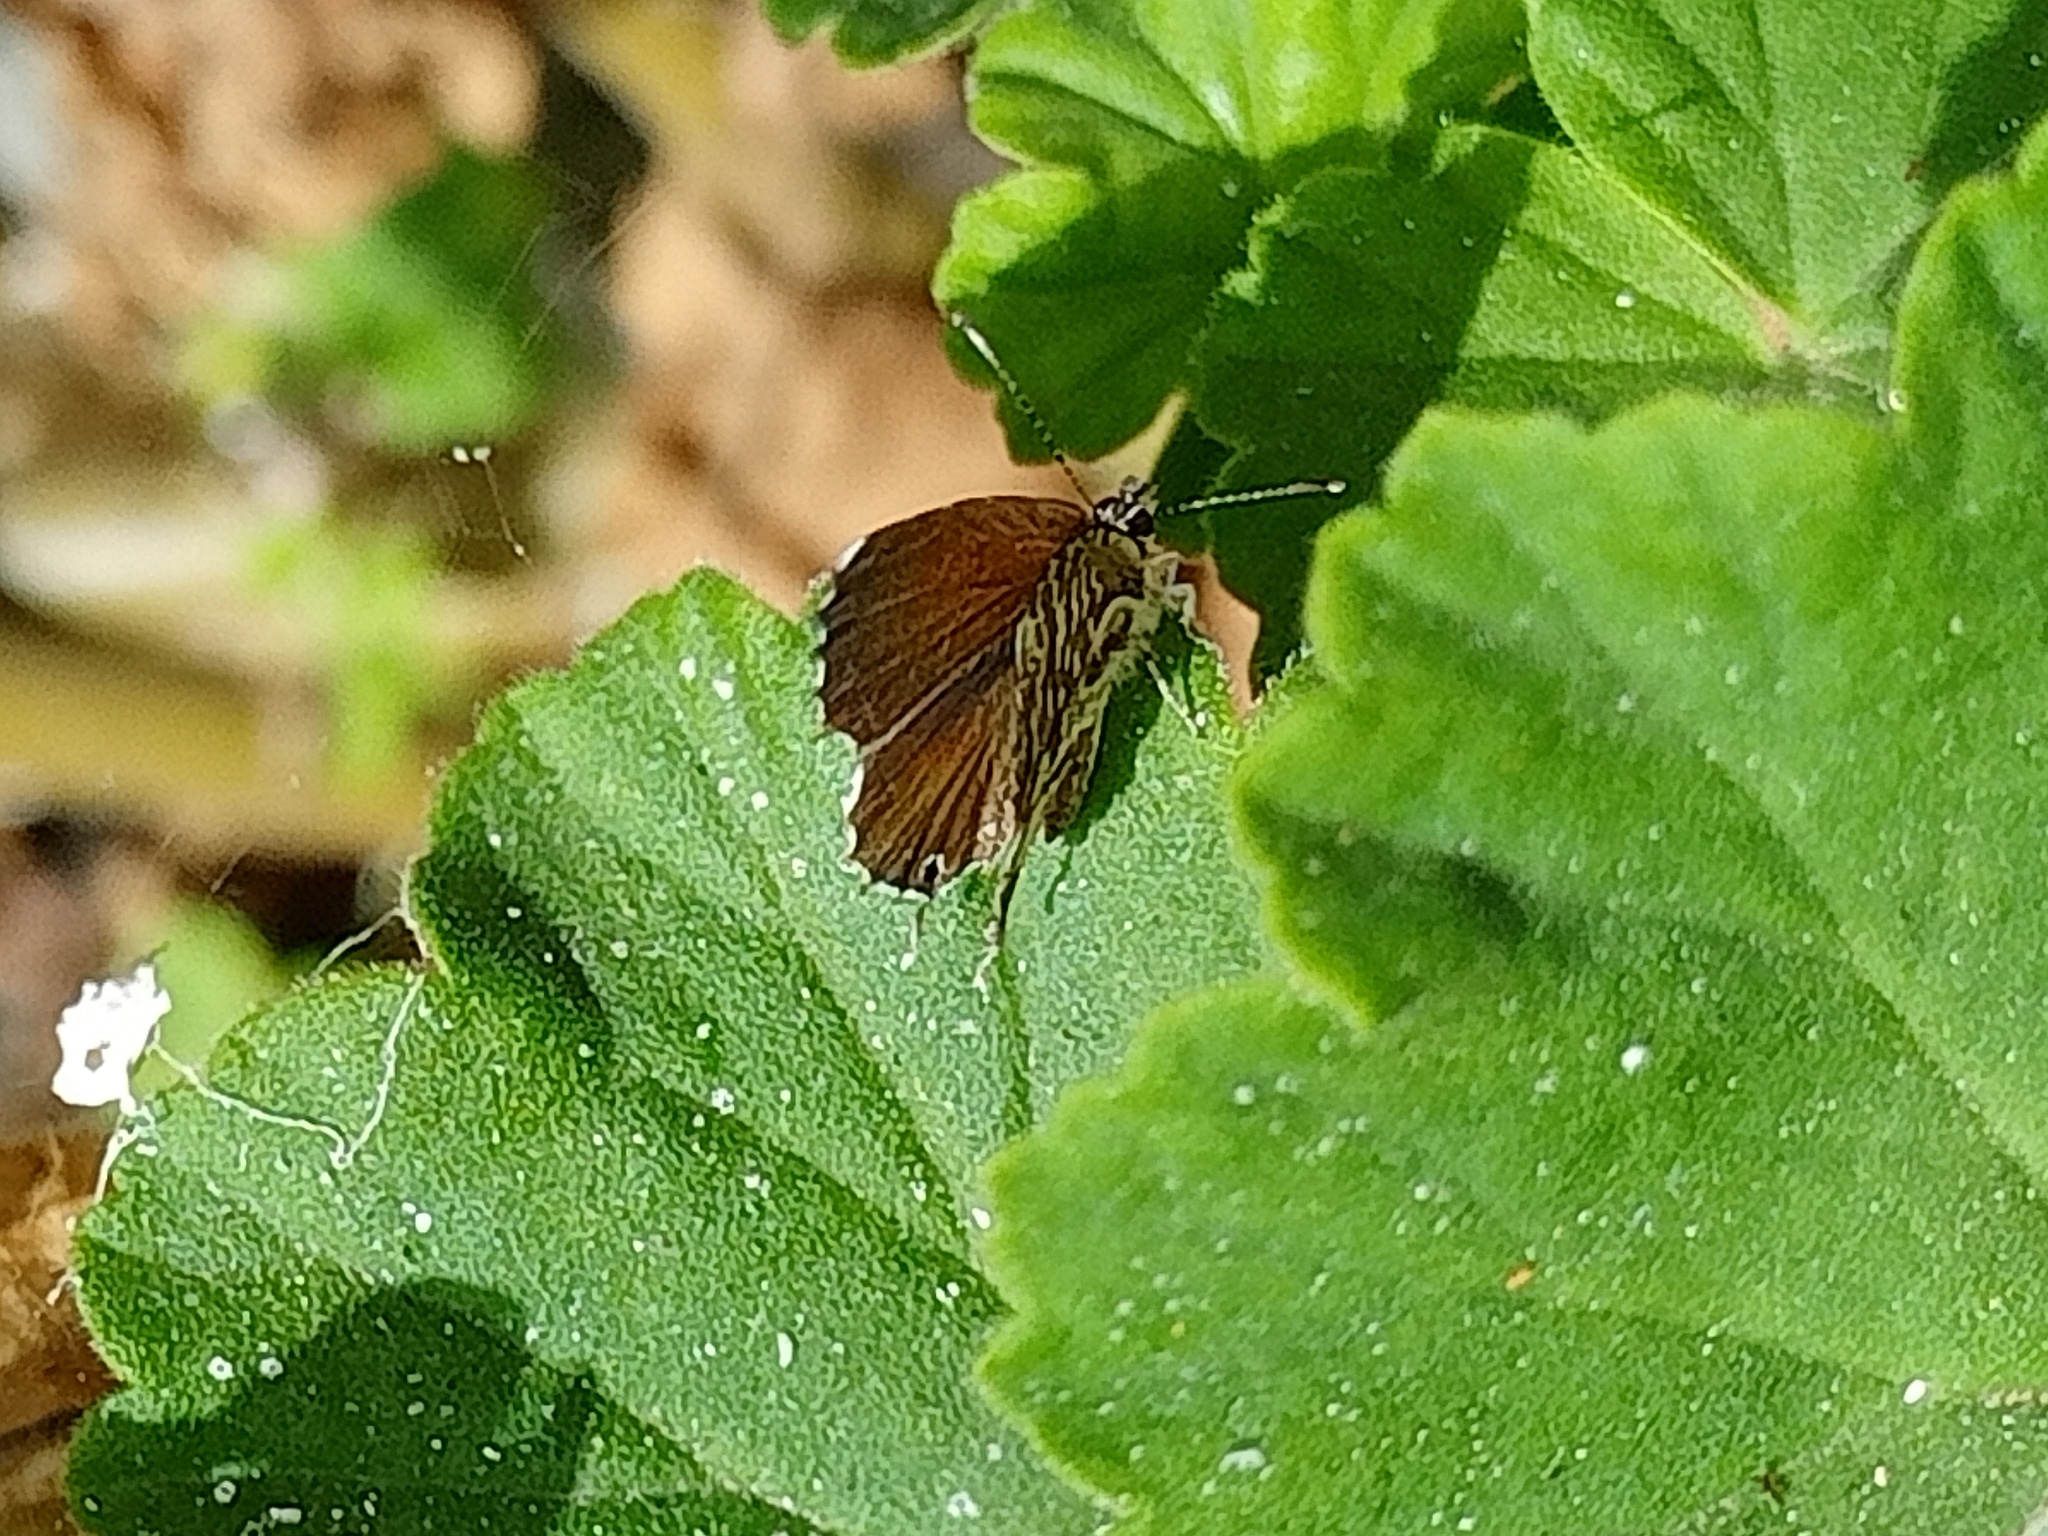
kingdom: Animalia
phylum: Arthropoda
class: Insecta
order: Lepidoptera
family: Lycaenidae
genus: Cacyreus
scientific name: Cacyreus marshalli
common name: Geranium bronze
